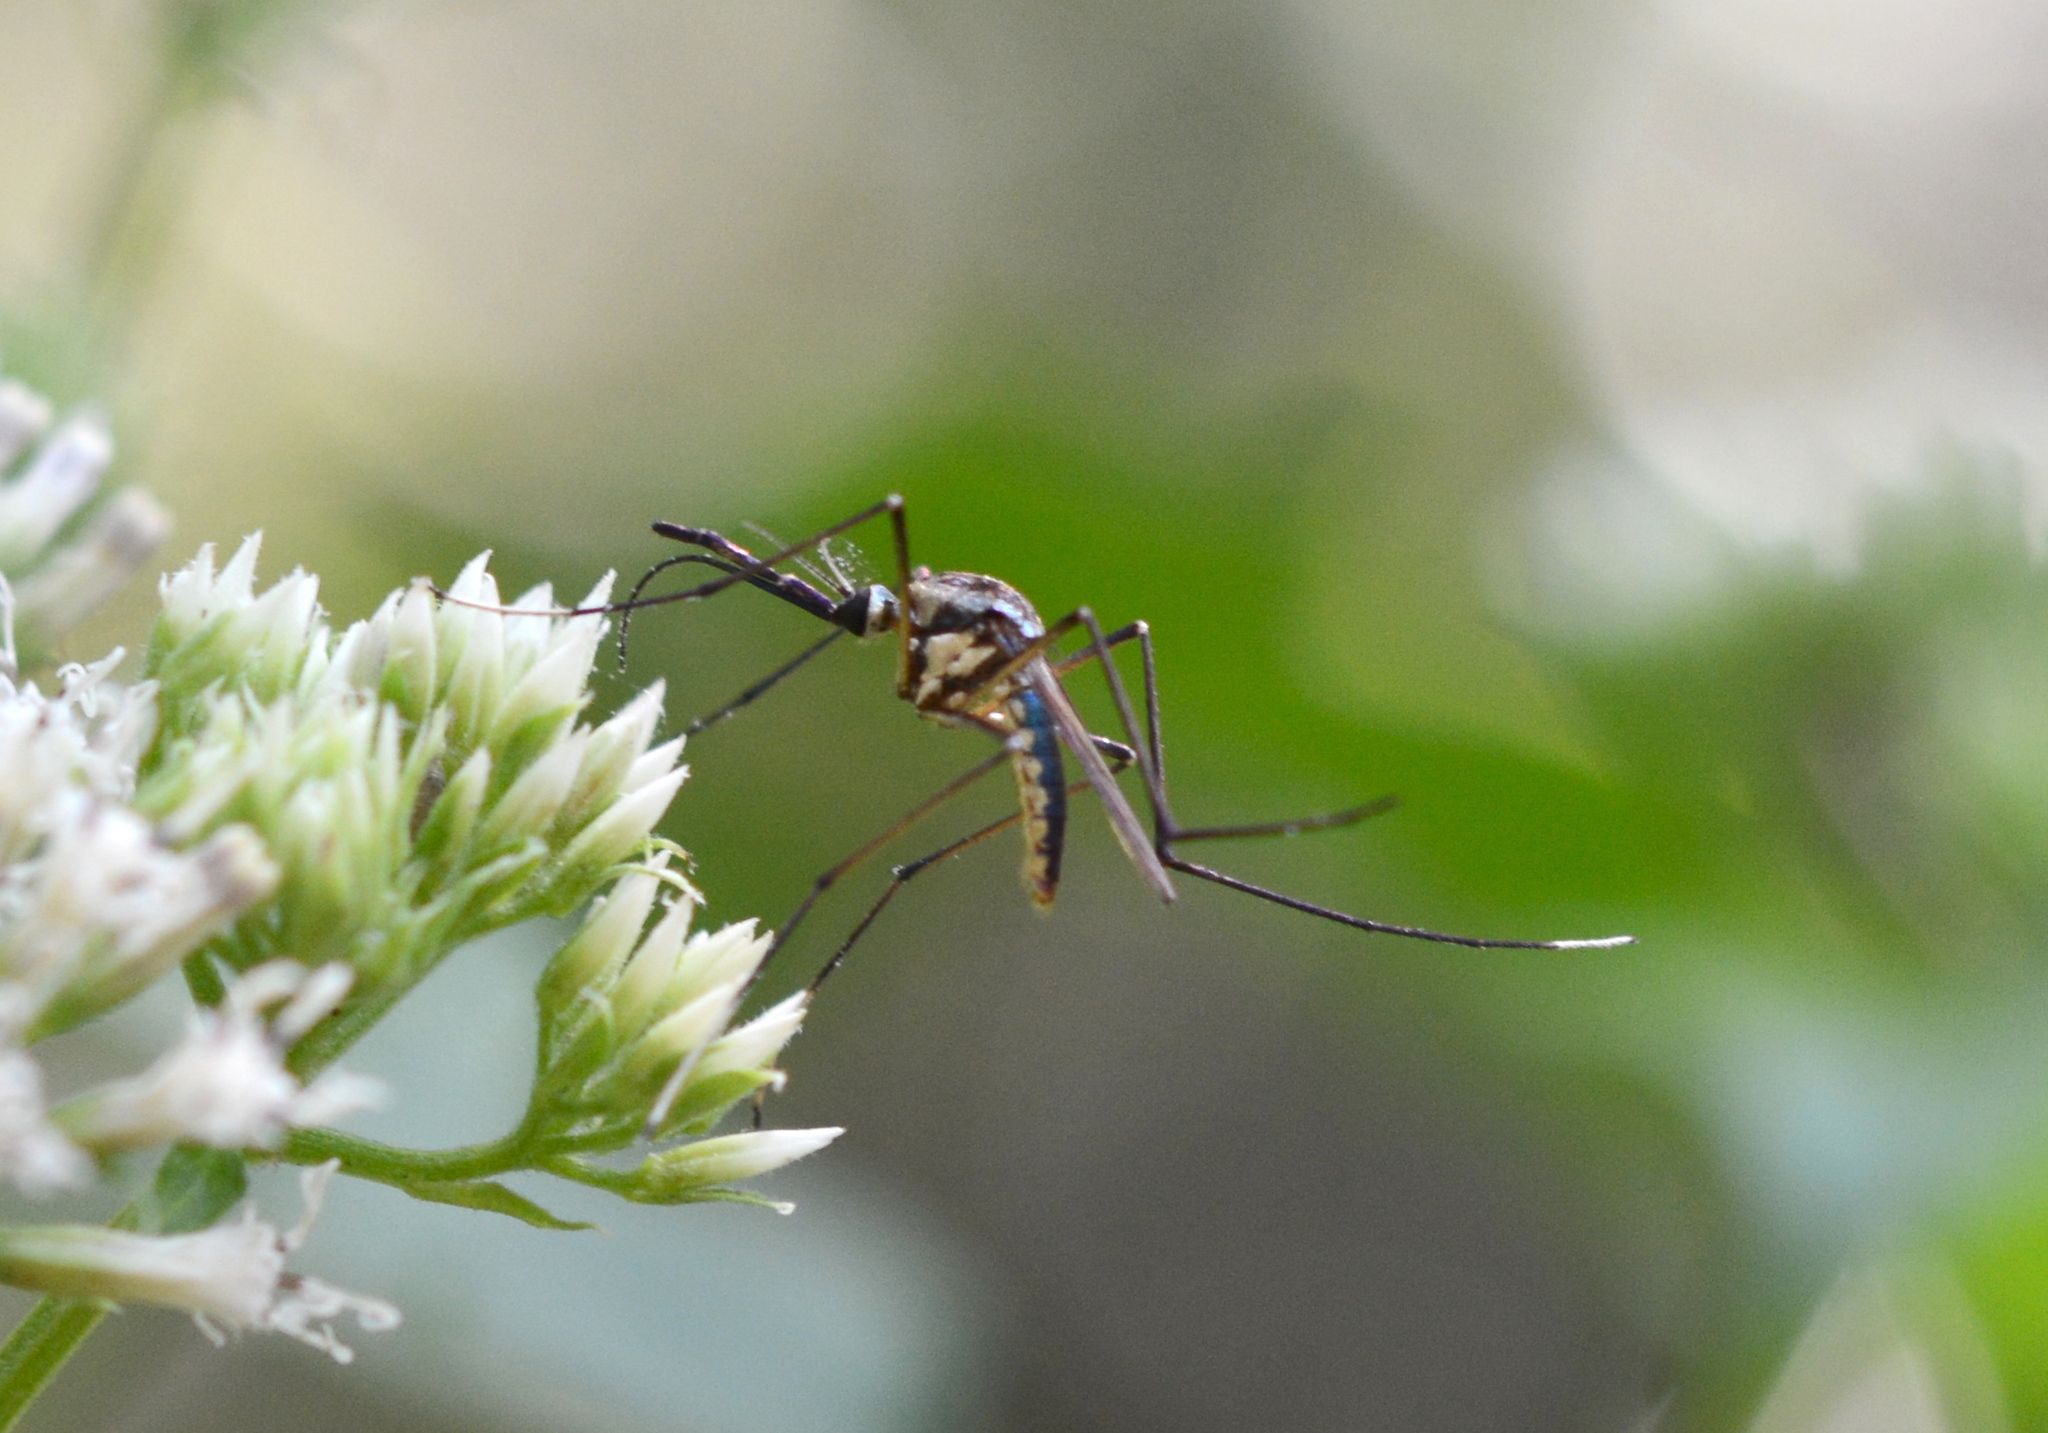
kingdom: Animalia
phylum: Arthropoda
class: Insecta
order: Diptera
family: Culicidae
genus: Toxorhynchites
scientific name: Toxorhynchites rutilus
